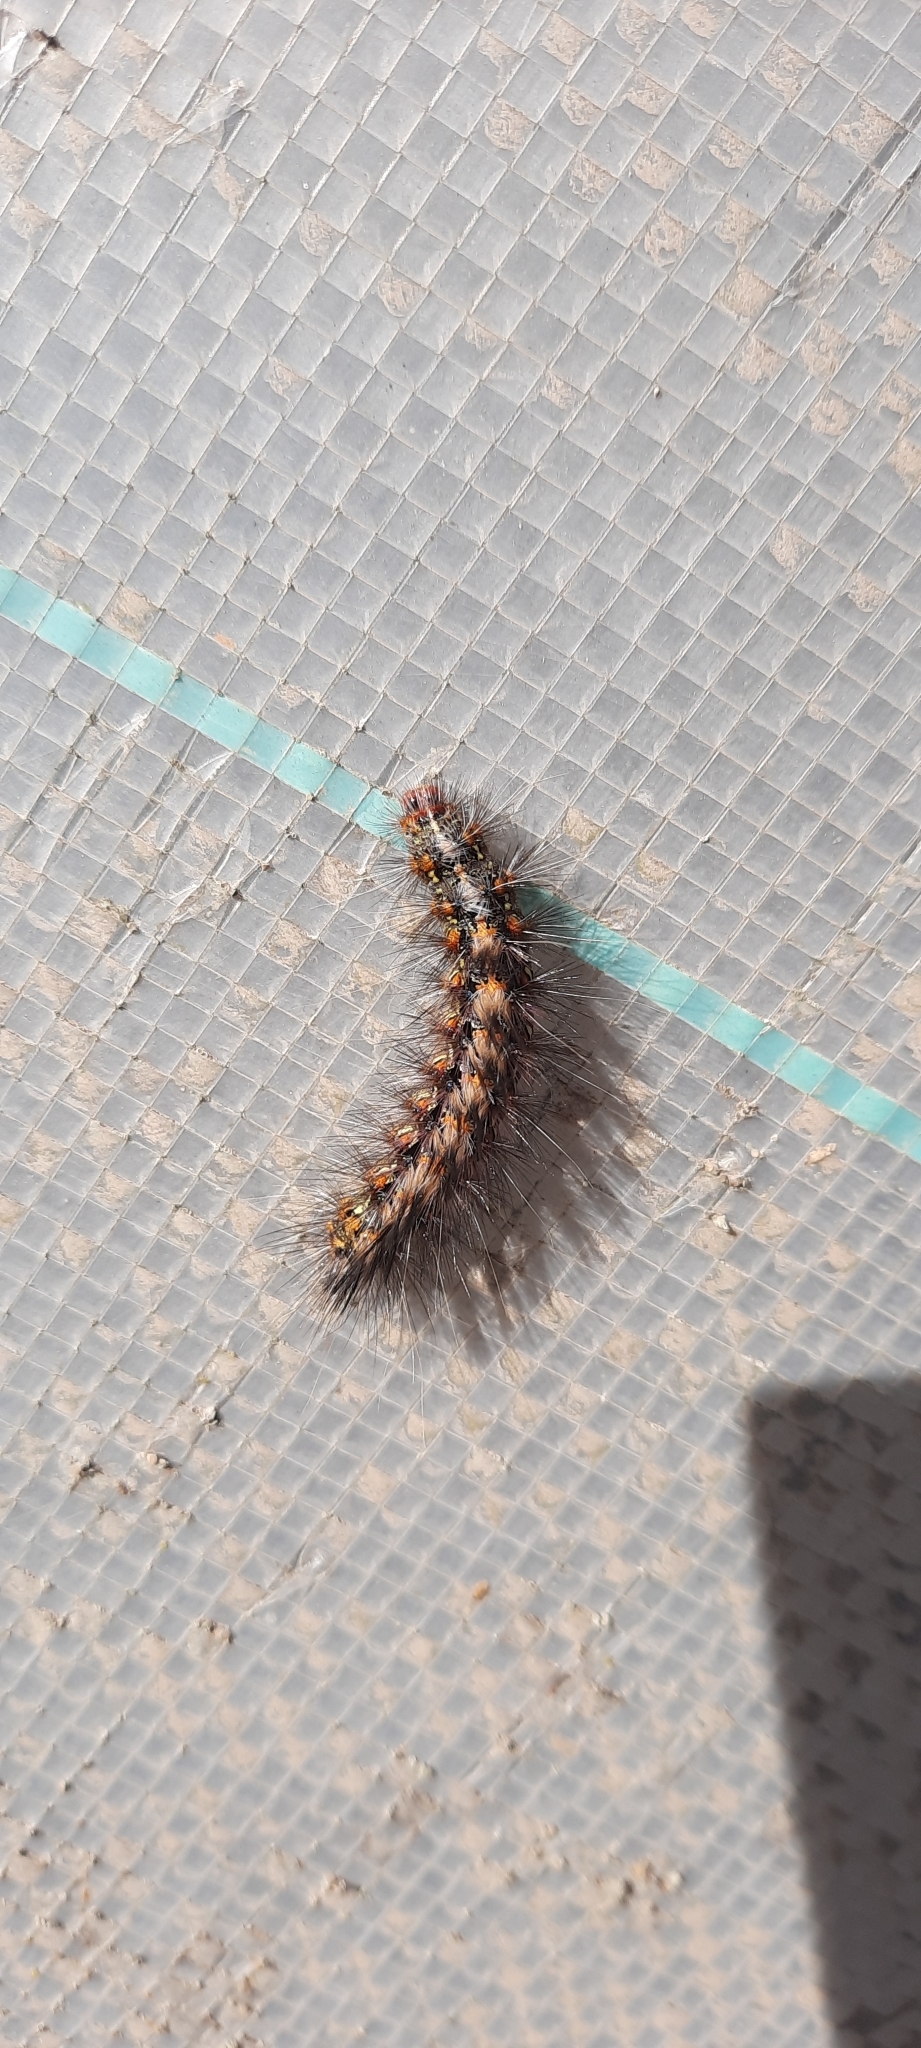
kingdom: Animalia
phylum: Arthropoda
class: Insecta
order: Lepidoptera
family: Erebidae
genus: Paralacydes
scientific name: Paralacydes vocula
